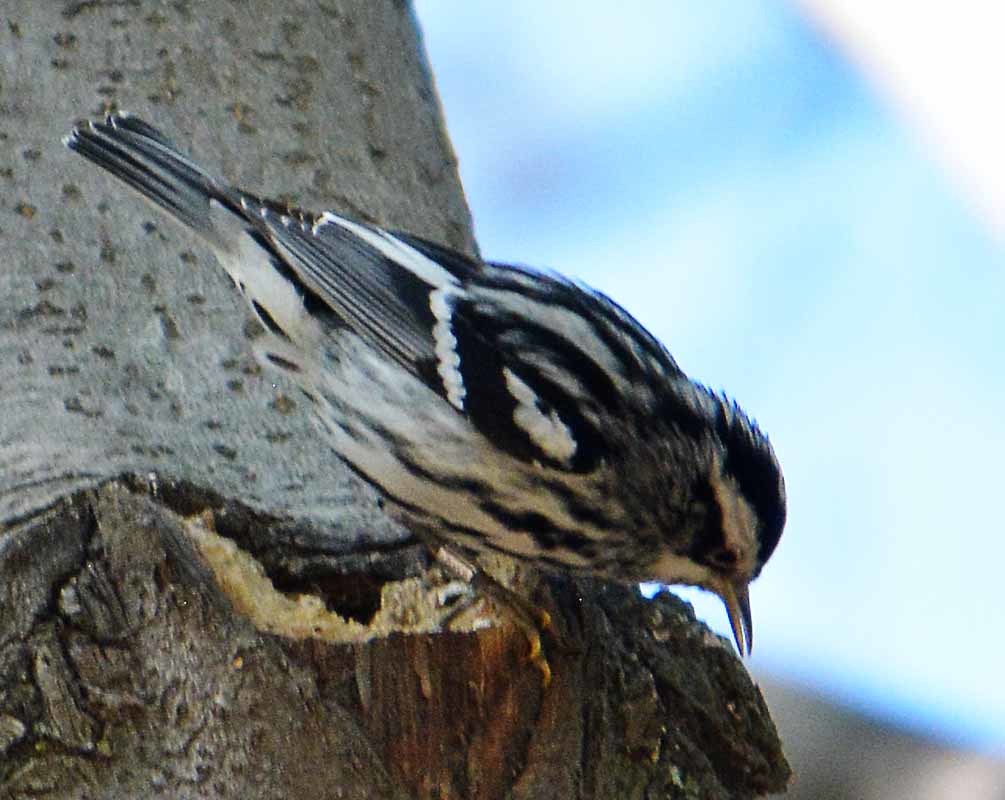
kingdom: Animalia
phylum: Chordata
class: Aves
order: Passeriformes
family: Parulidae
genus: Mniotilta
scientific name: Mniotilta varia
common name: Black-and-white warbler
